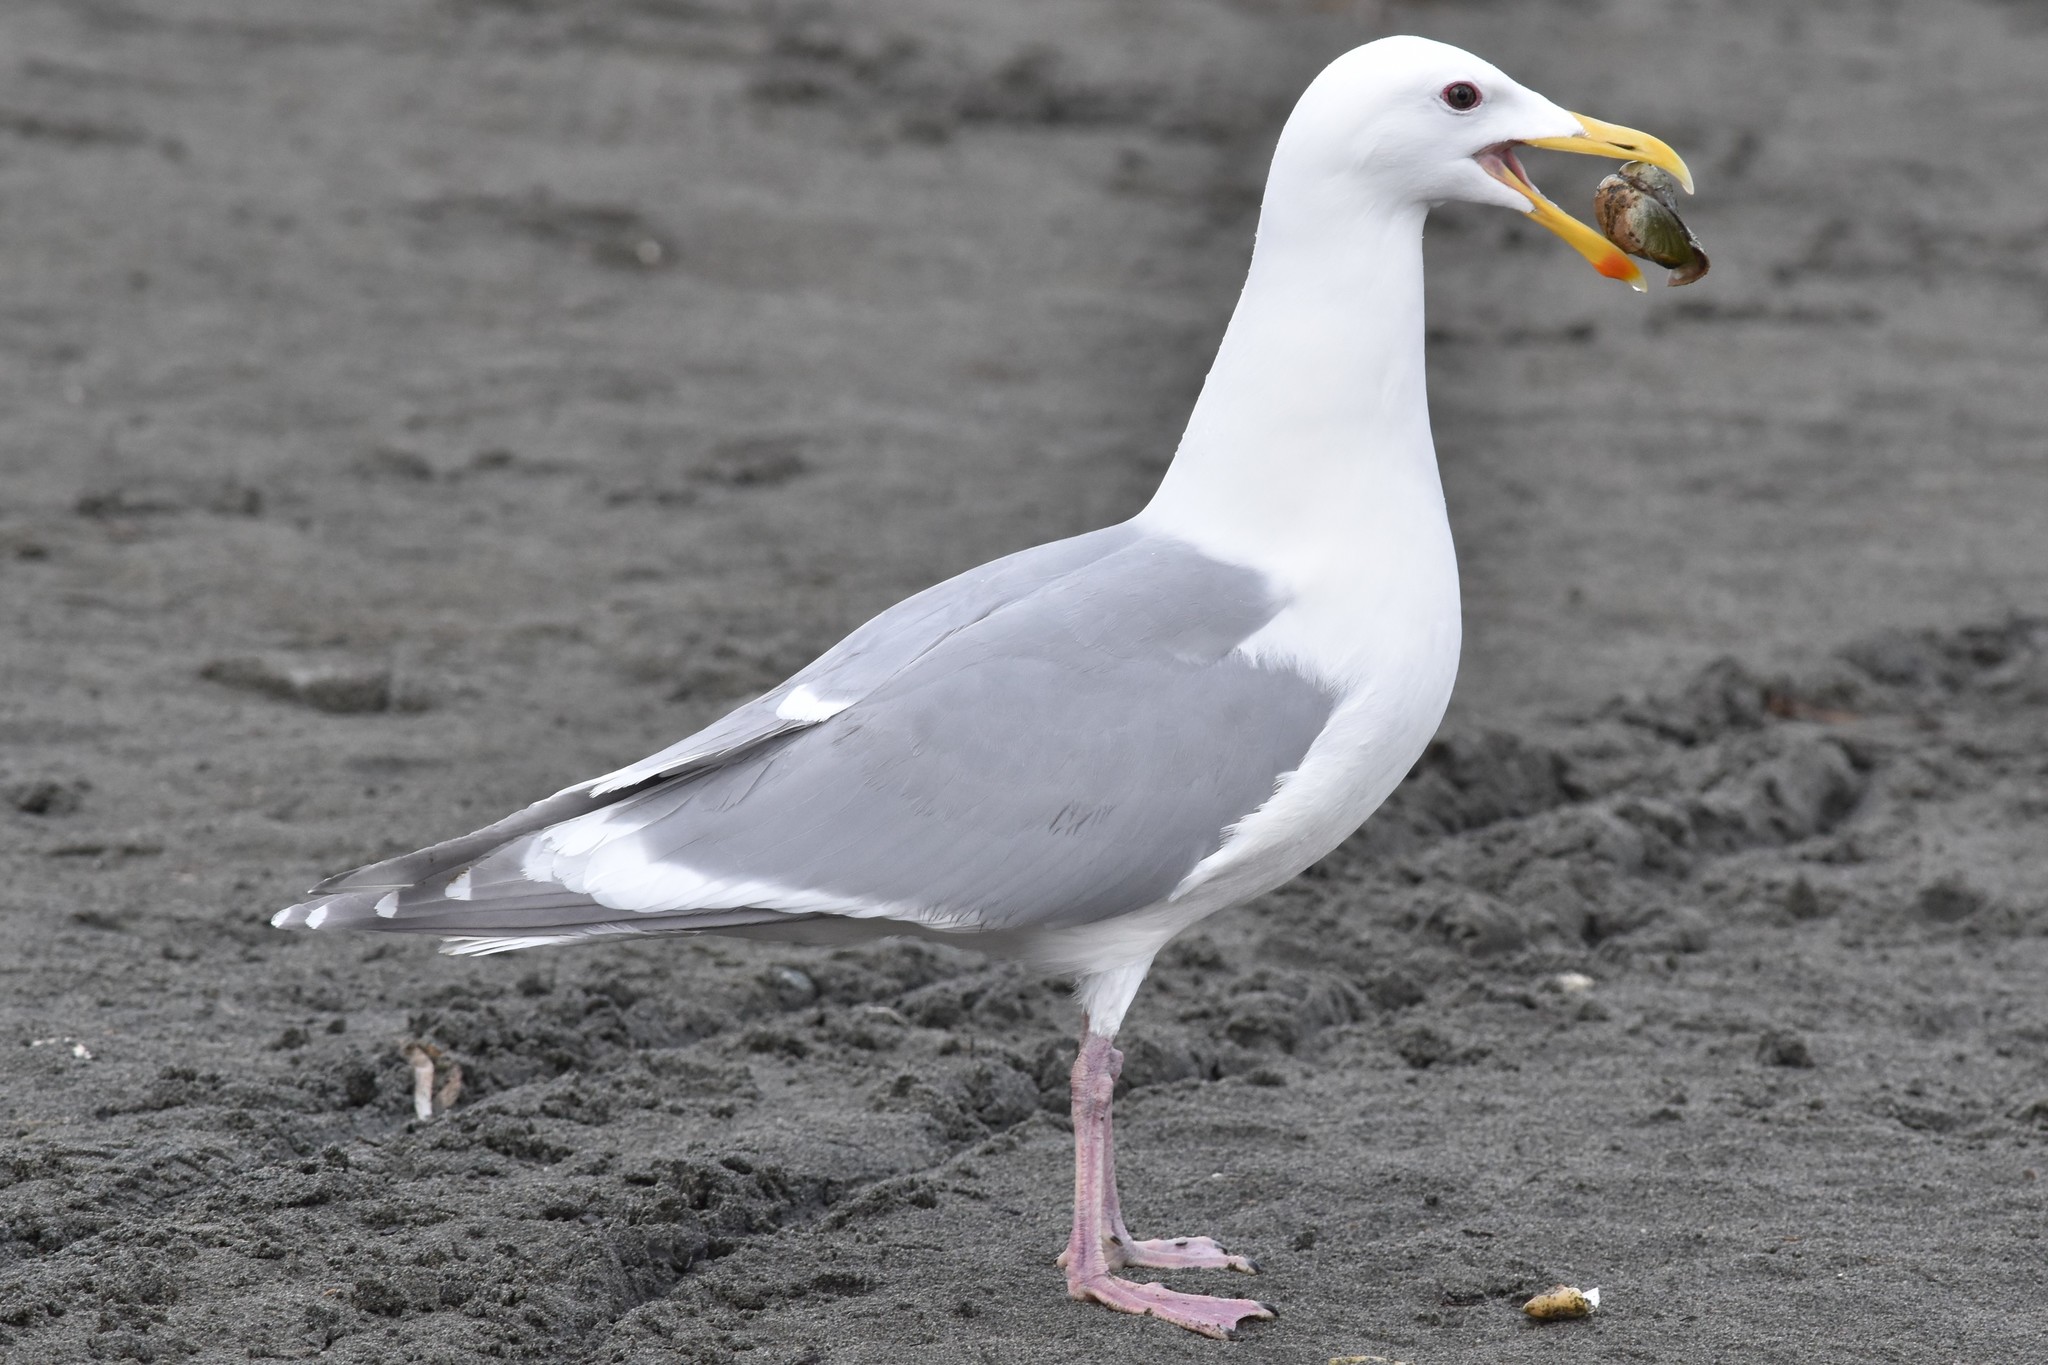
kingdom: Animalia
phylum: Chordata
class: Aves
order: Charadriiformes
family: Laridae
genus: Larus
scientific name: Larus glaucescens
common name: Glaucous-winged gull
